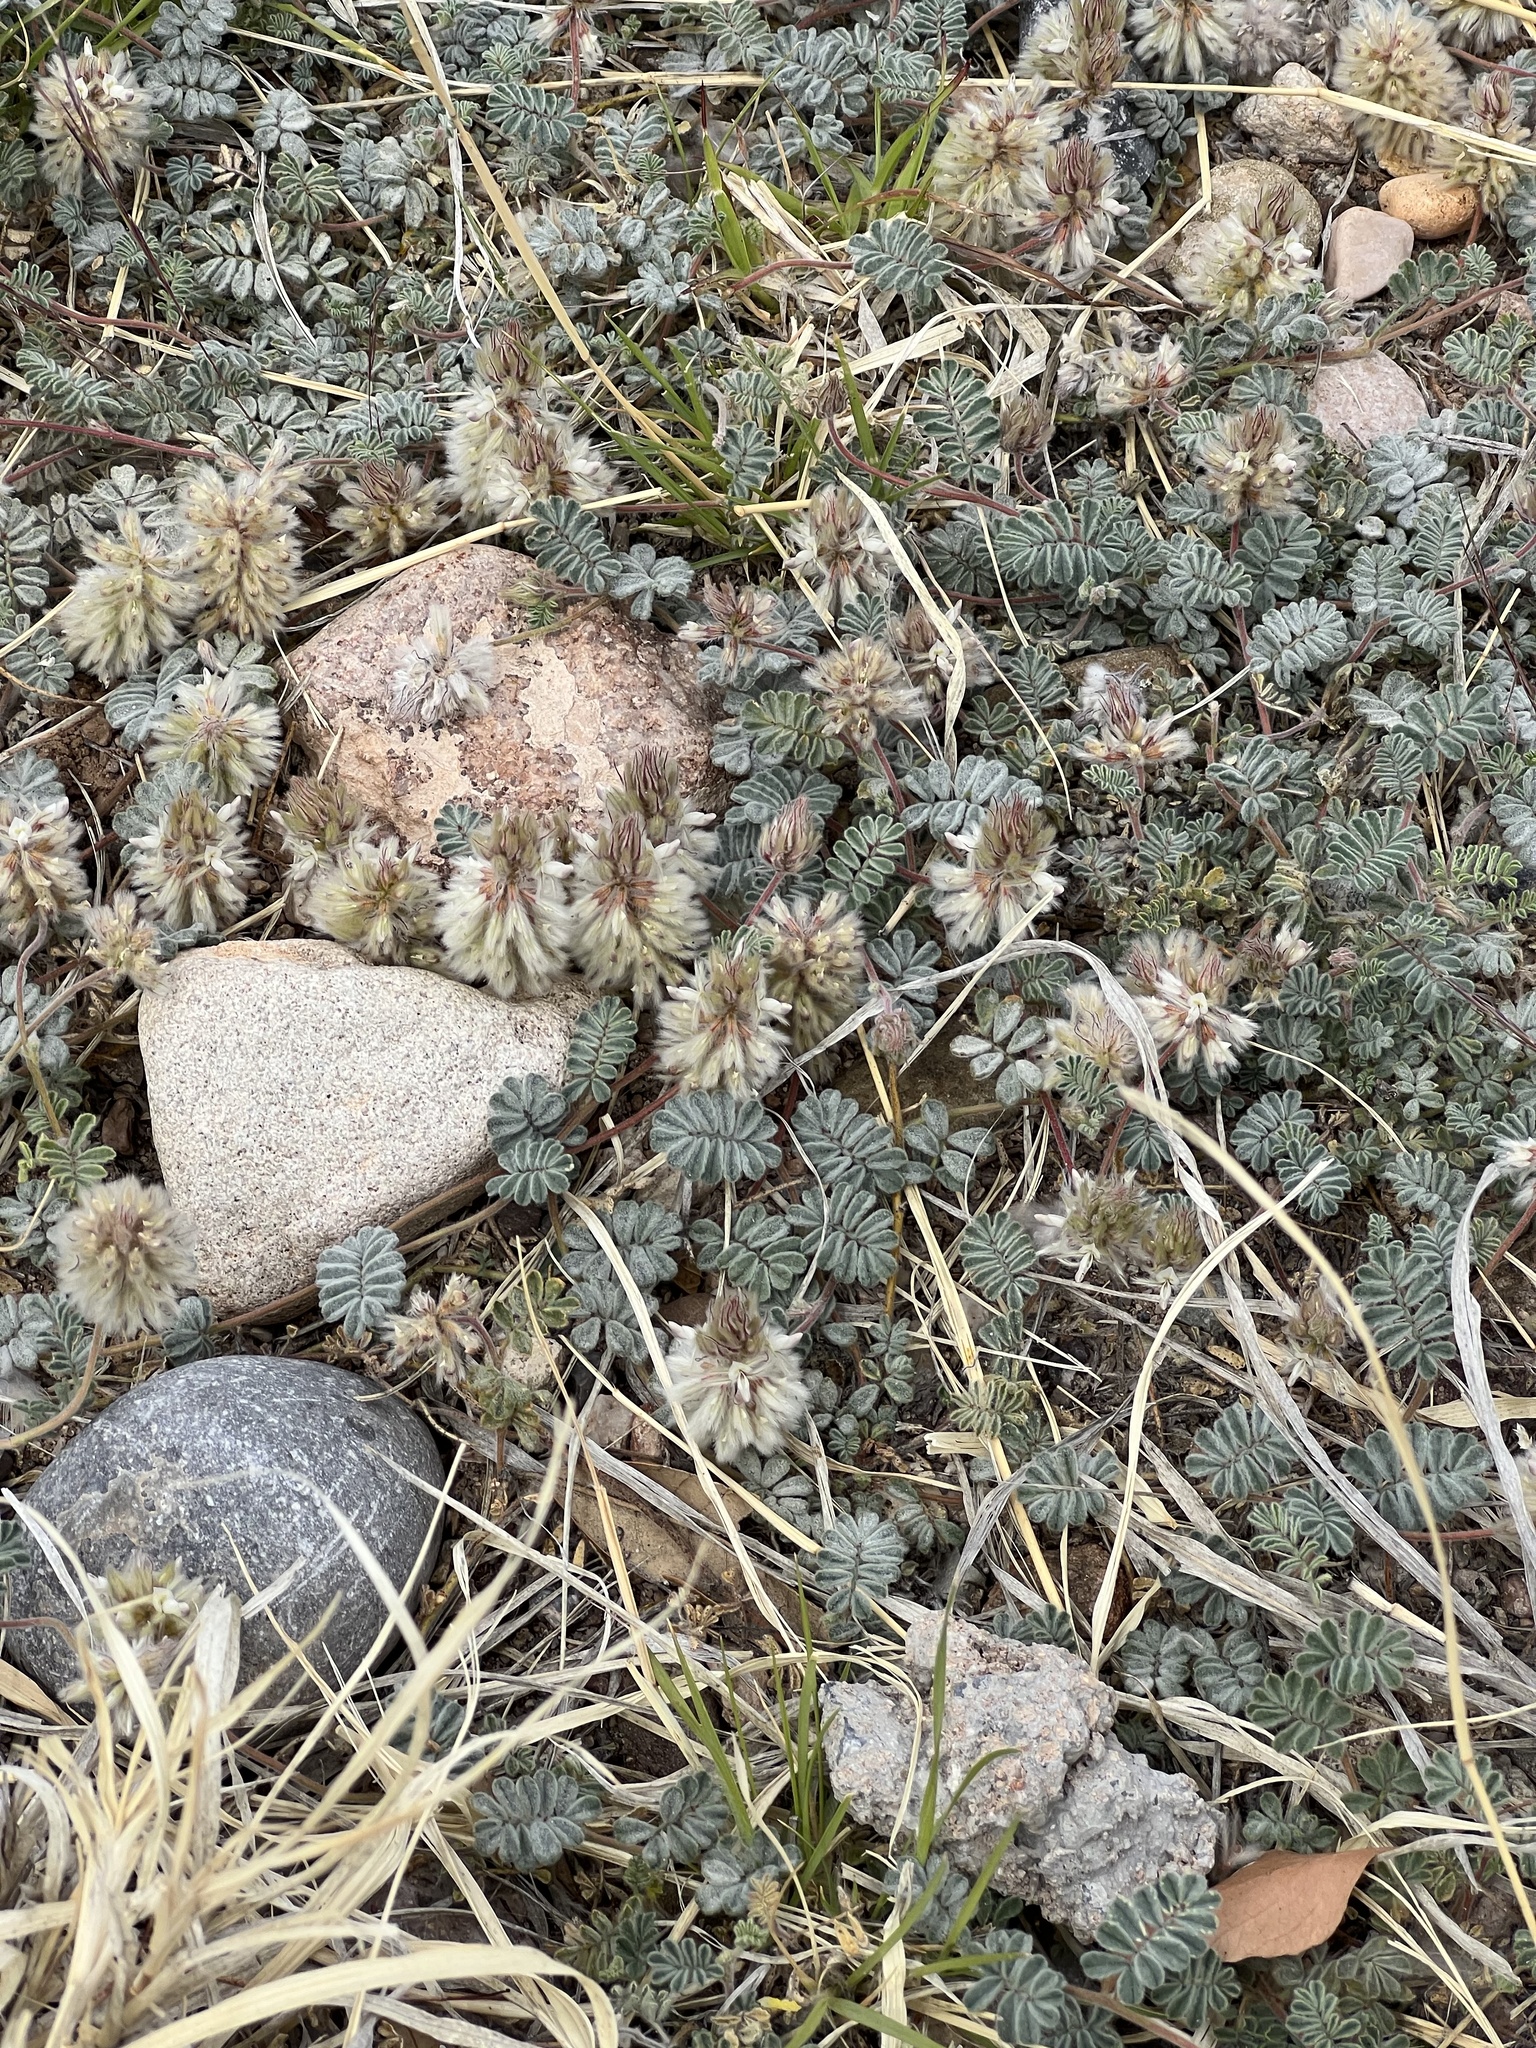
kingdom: Plantae
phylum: Tracheophyta
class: Magnoliopsida
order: Fabales
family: Fabaceae
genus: Dalea
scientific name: Dalea neomexicana
